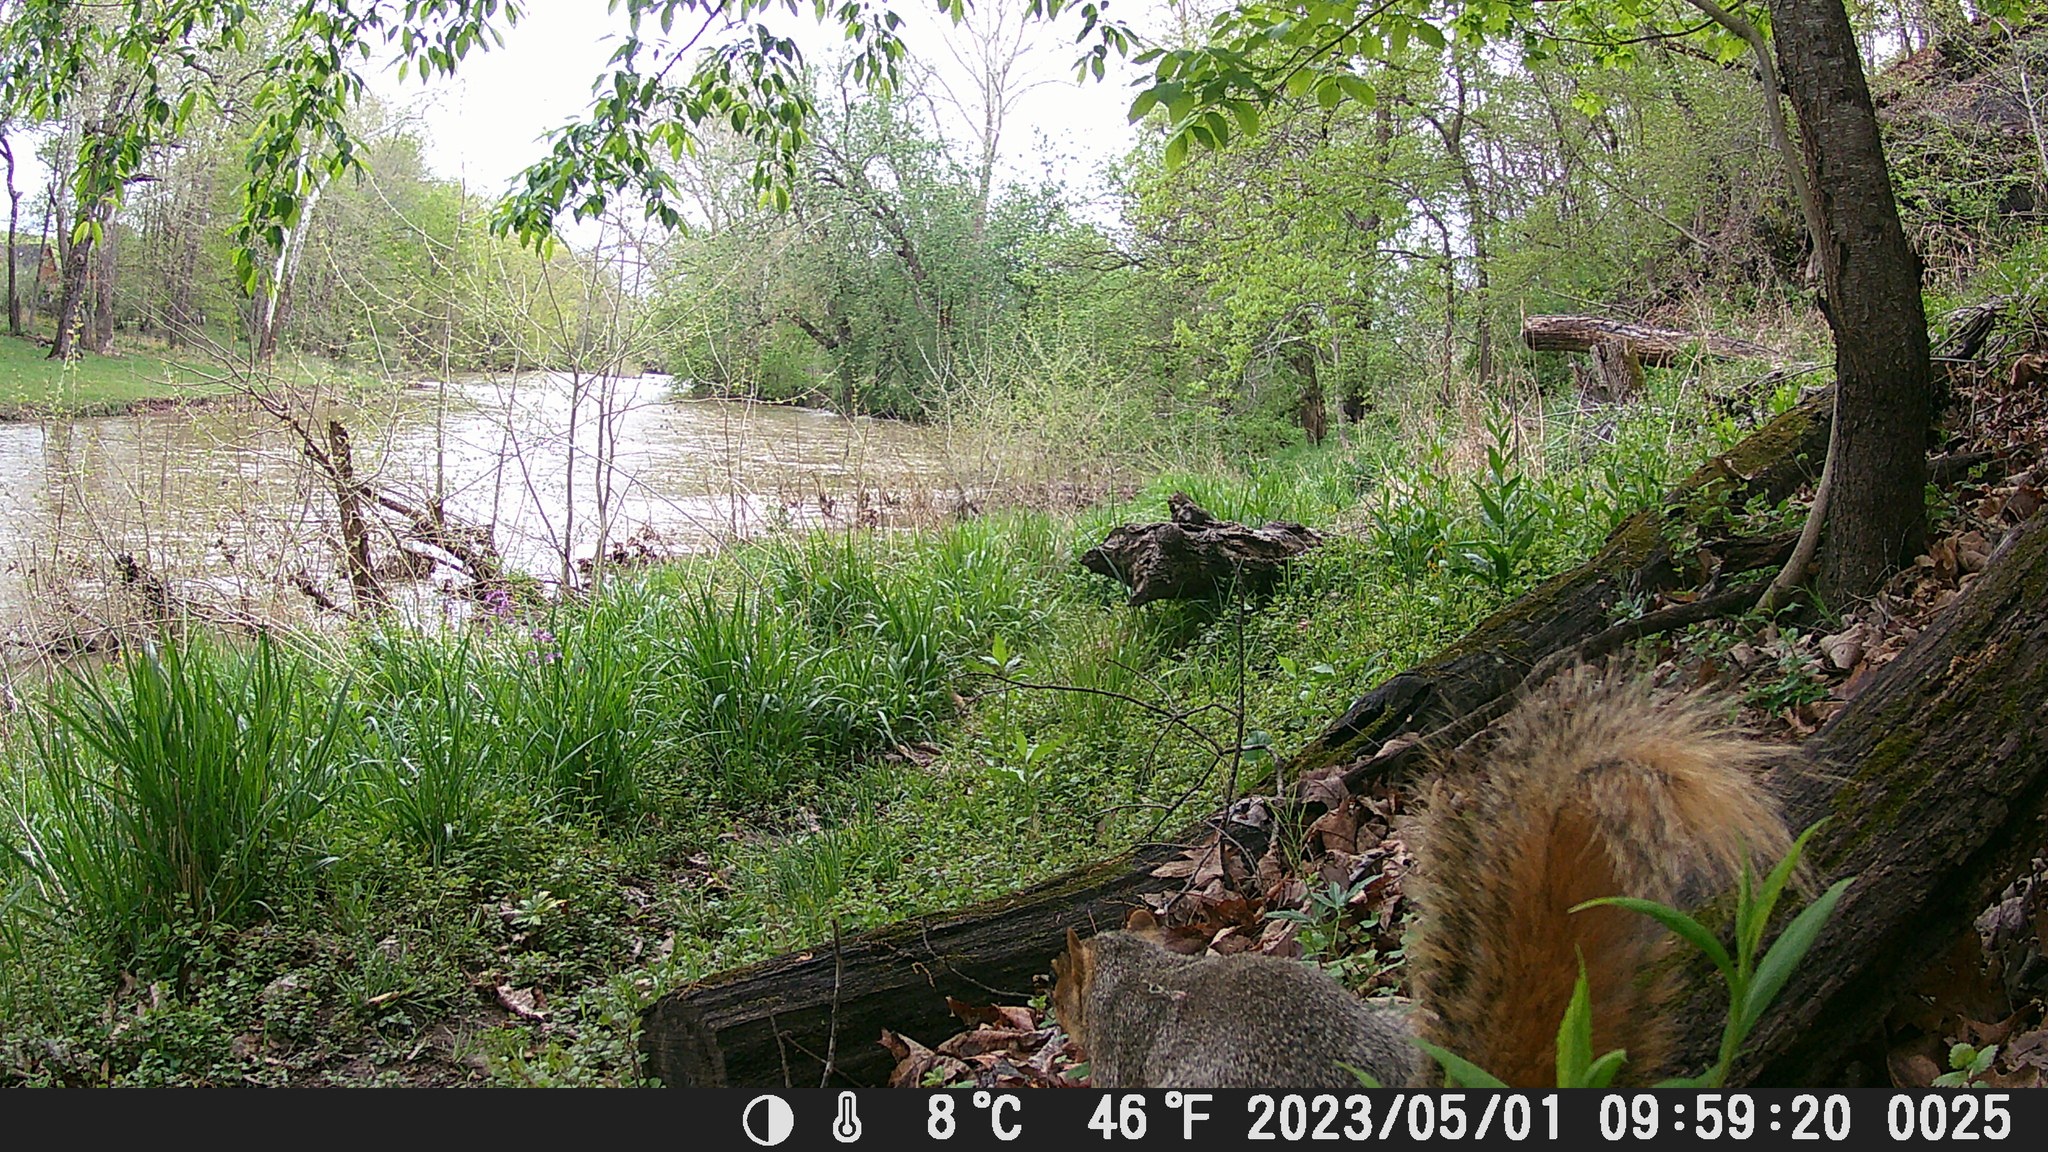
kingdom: Animalia
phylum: Chordata
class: Mammalia
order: Rodentia
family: Sciuridae
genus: Sciurus
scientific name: Sciurus niger
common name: Fox squirrel
